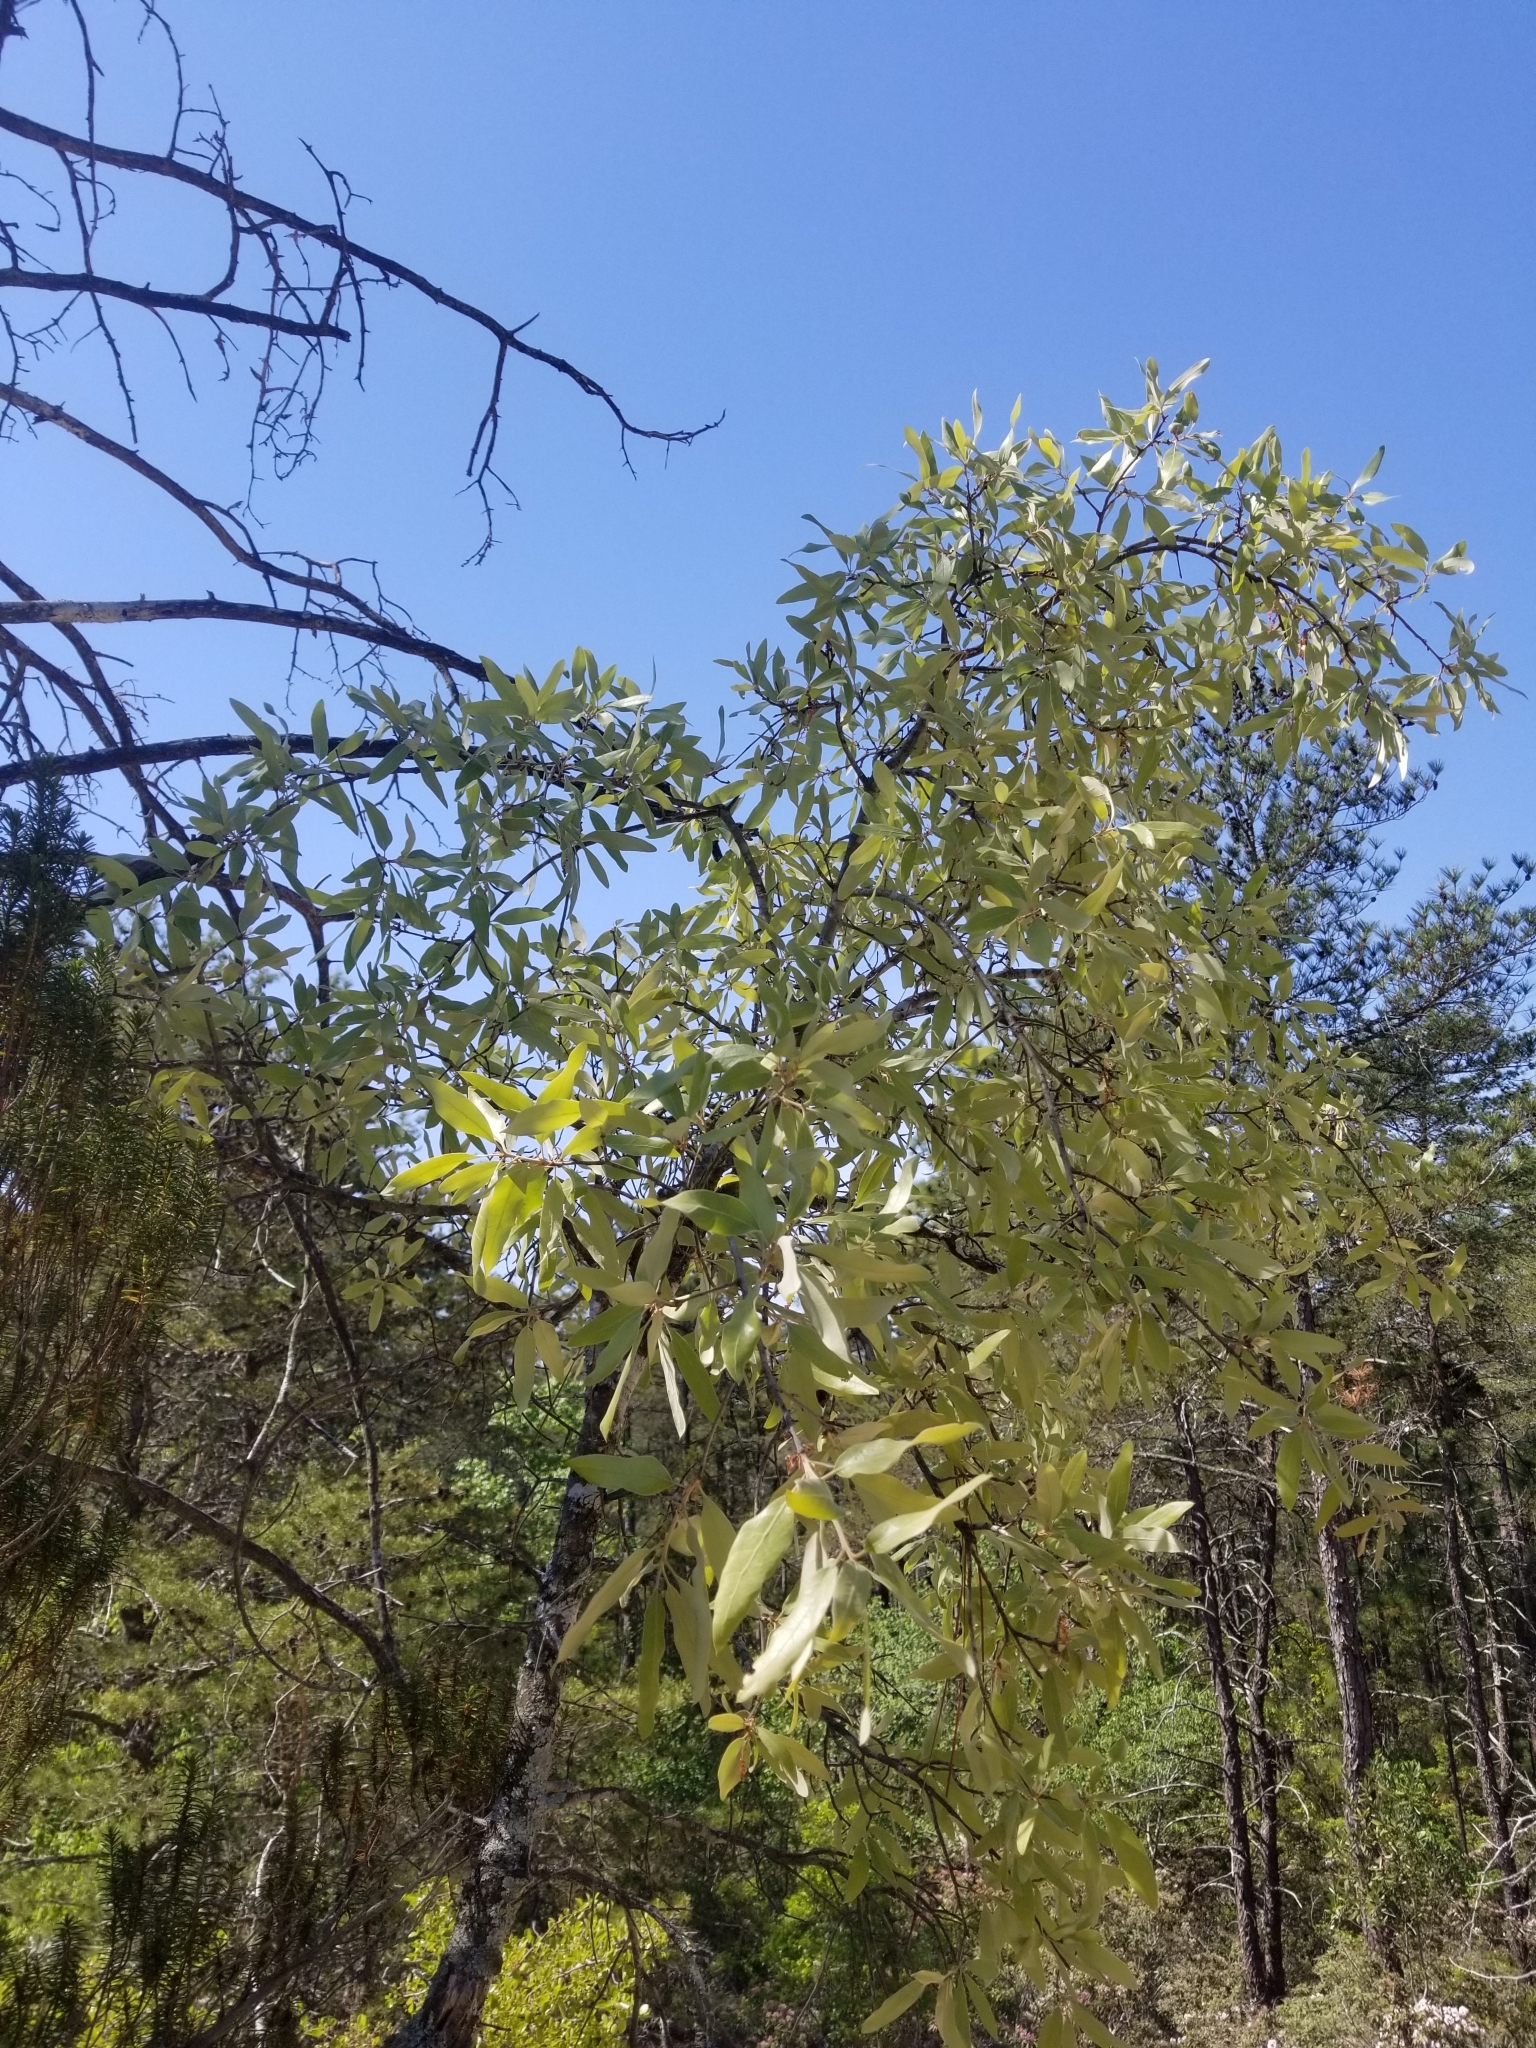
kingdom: Plantae
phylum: Tracheophyta
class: Magnoliopsida
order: Fagales
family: Fagaceae
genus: Quercus
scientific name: Quercus incana
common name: Bluejack oak
